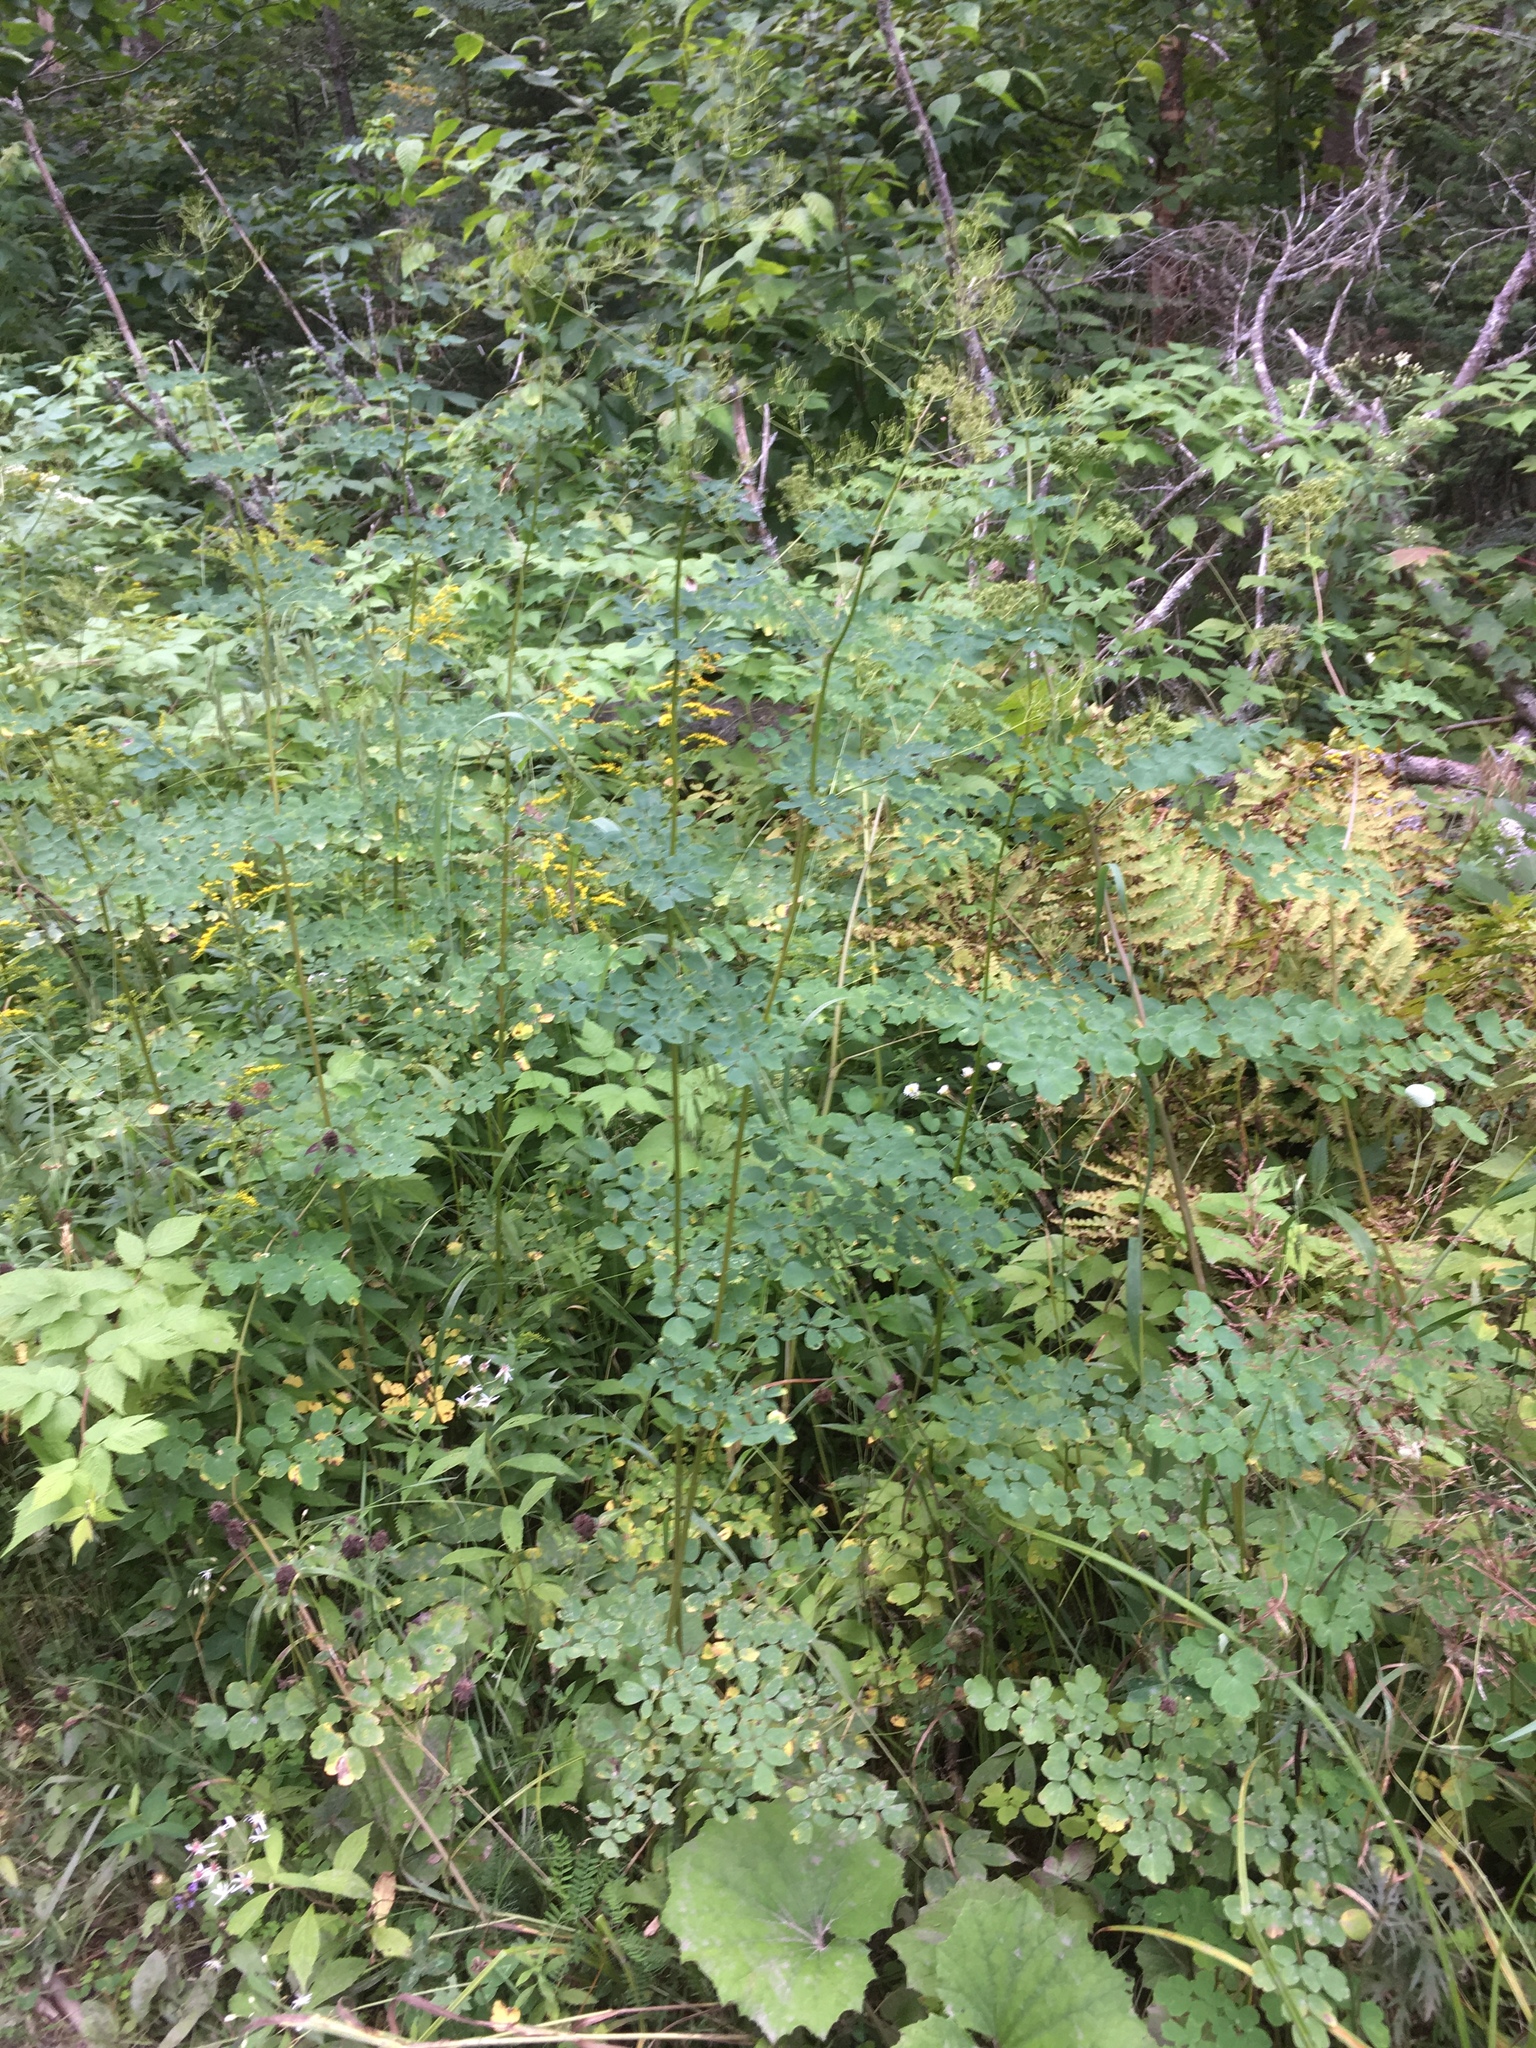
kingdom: Plantae
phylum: Tracheophyta
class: Magnoliopsida
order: Ranunculales
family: Ranunculaceae
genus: Thalictrum
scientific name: Thalictrum pubescens
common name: King-of-the-meadow
